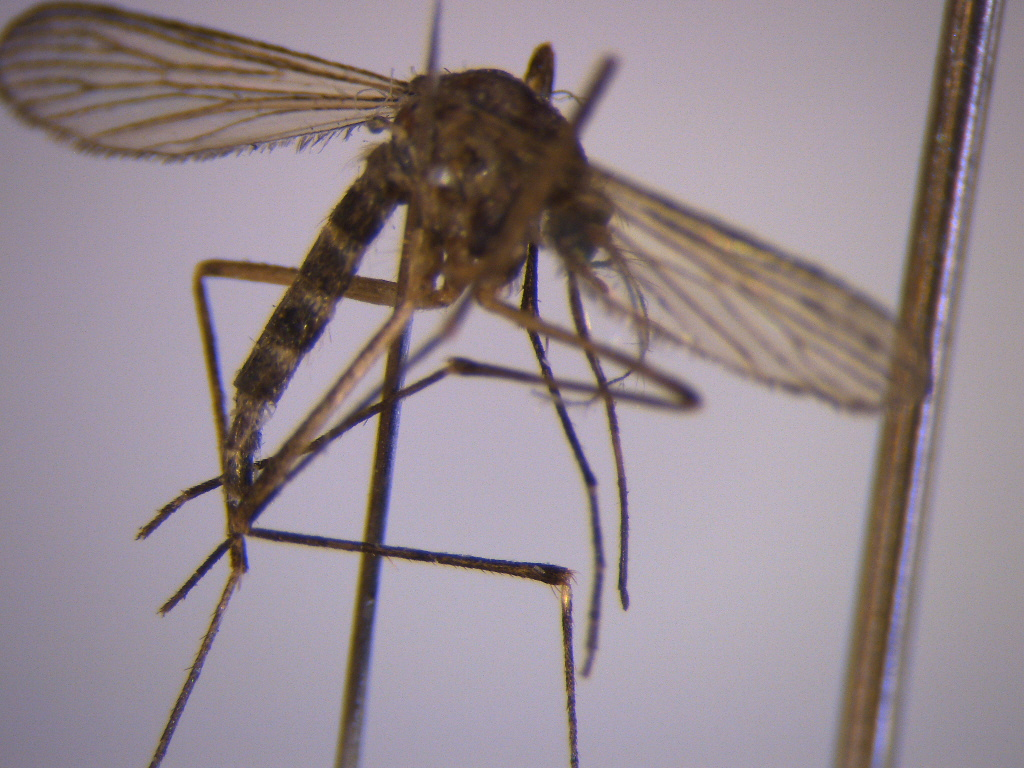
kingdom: Animalia
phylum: Arthropoda
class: Insecta
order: Diptera
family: Culicidae
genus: Aedes
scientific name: Aedes antipodeus
